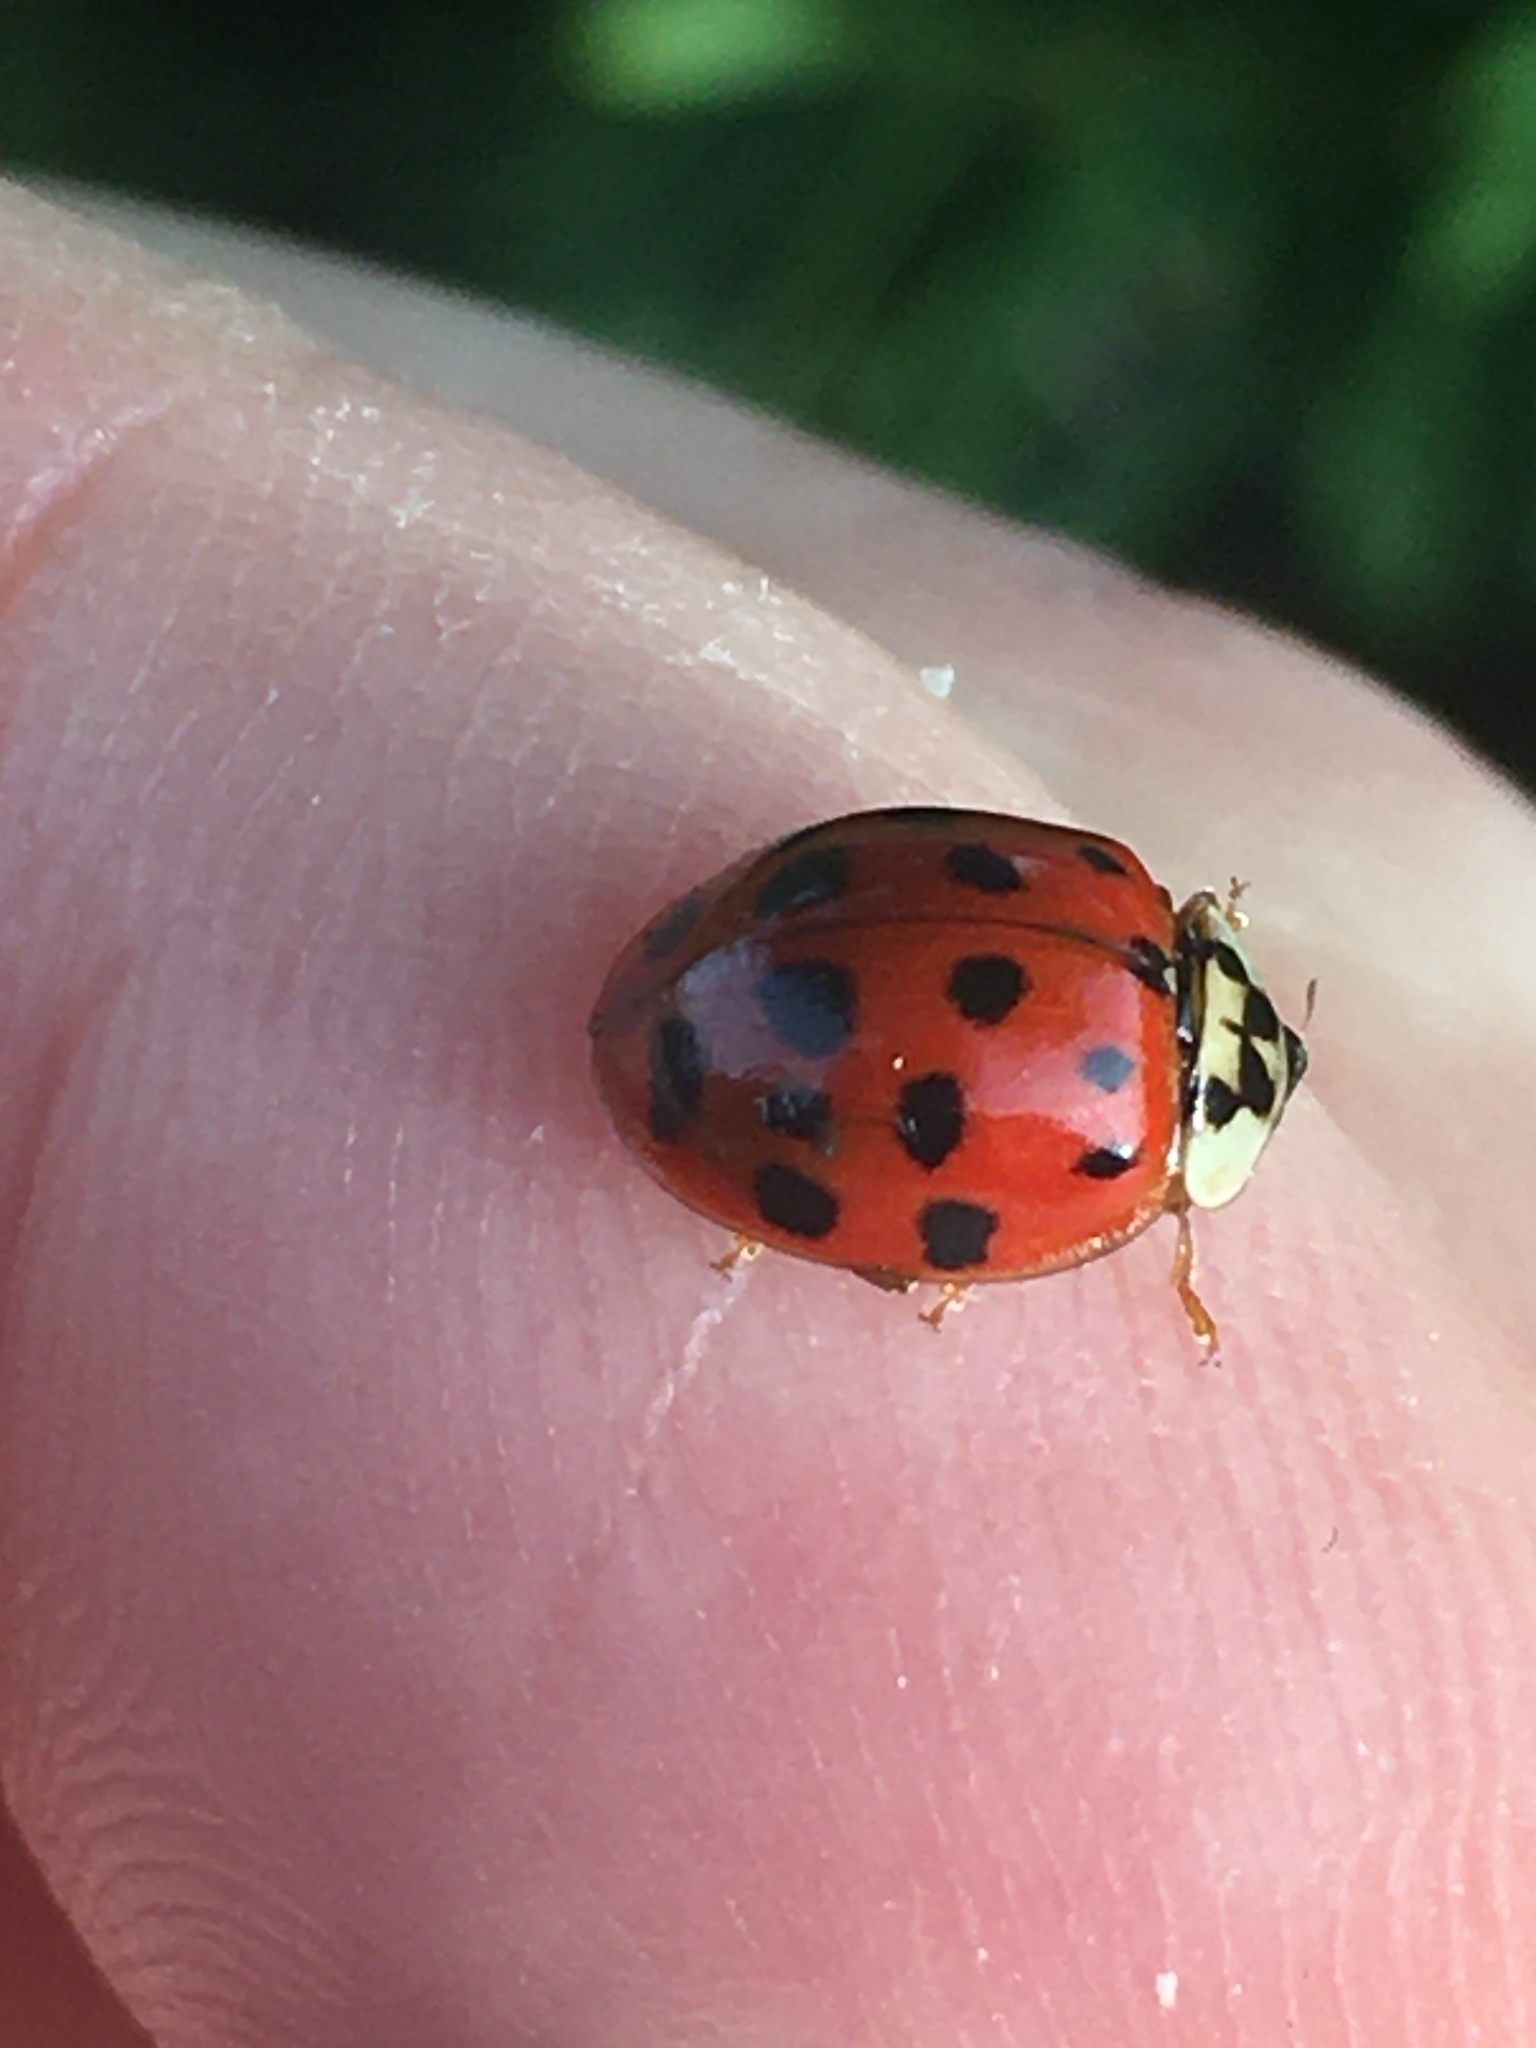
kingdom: Animalia
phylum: Arthropoda
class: Insecta
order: Coleoptera
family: Coccinellidae
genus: Harmonia
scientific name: Harmonia axyridis
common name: Harlequin ladybird
